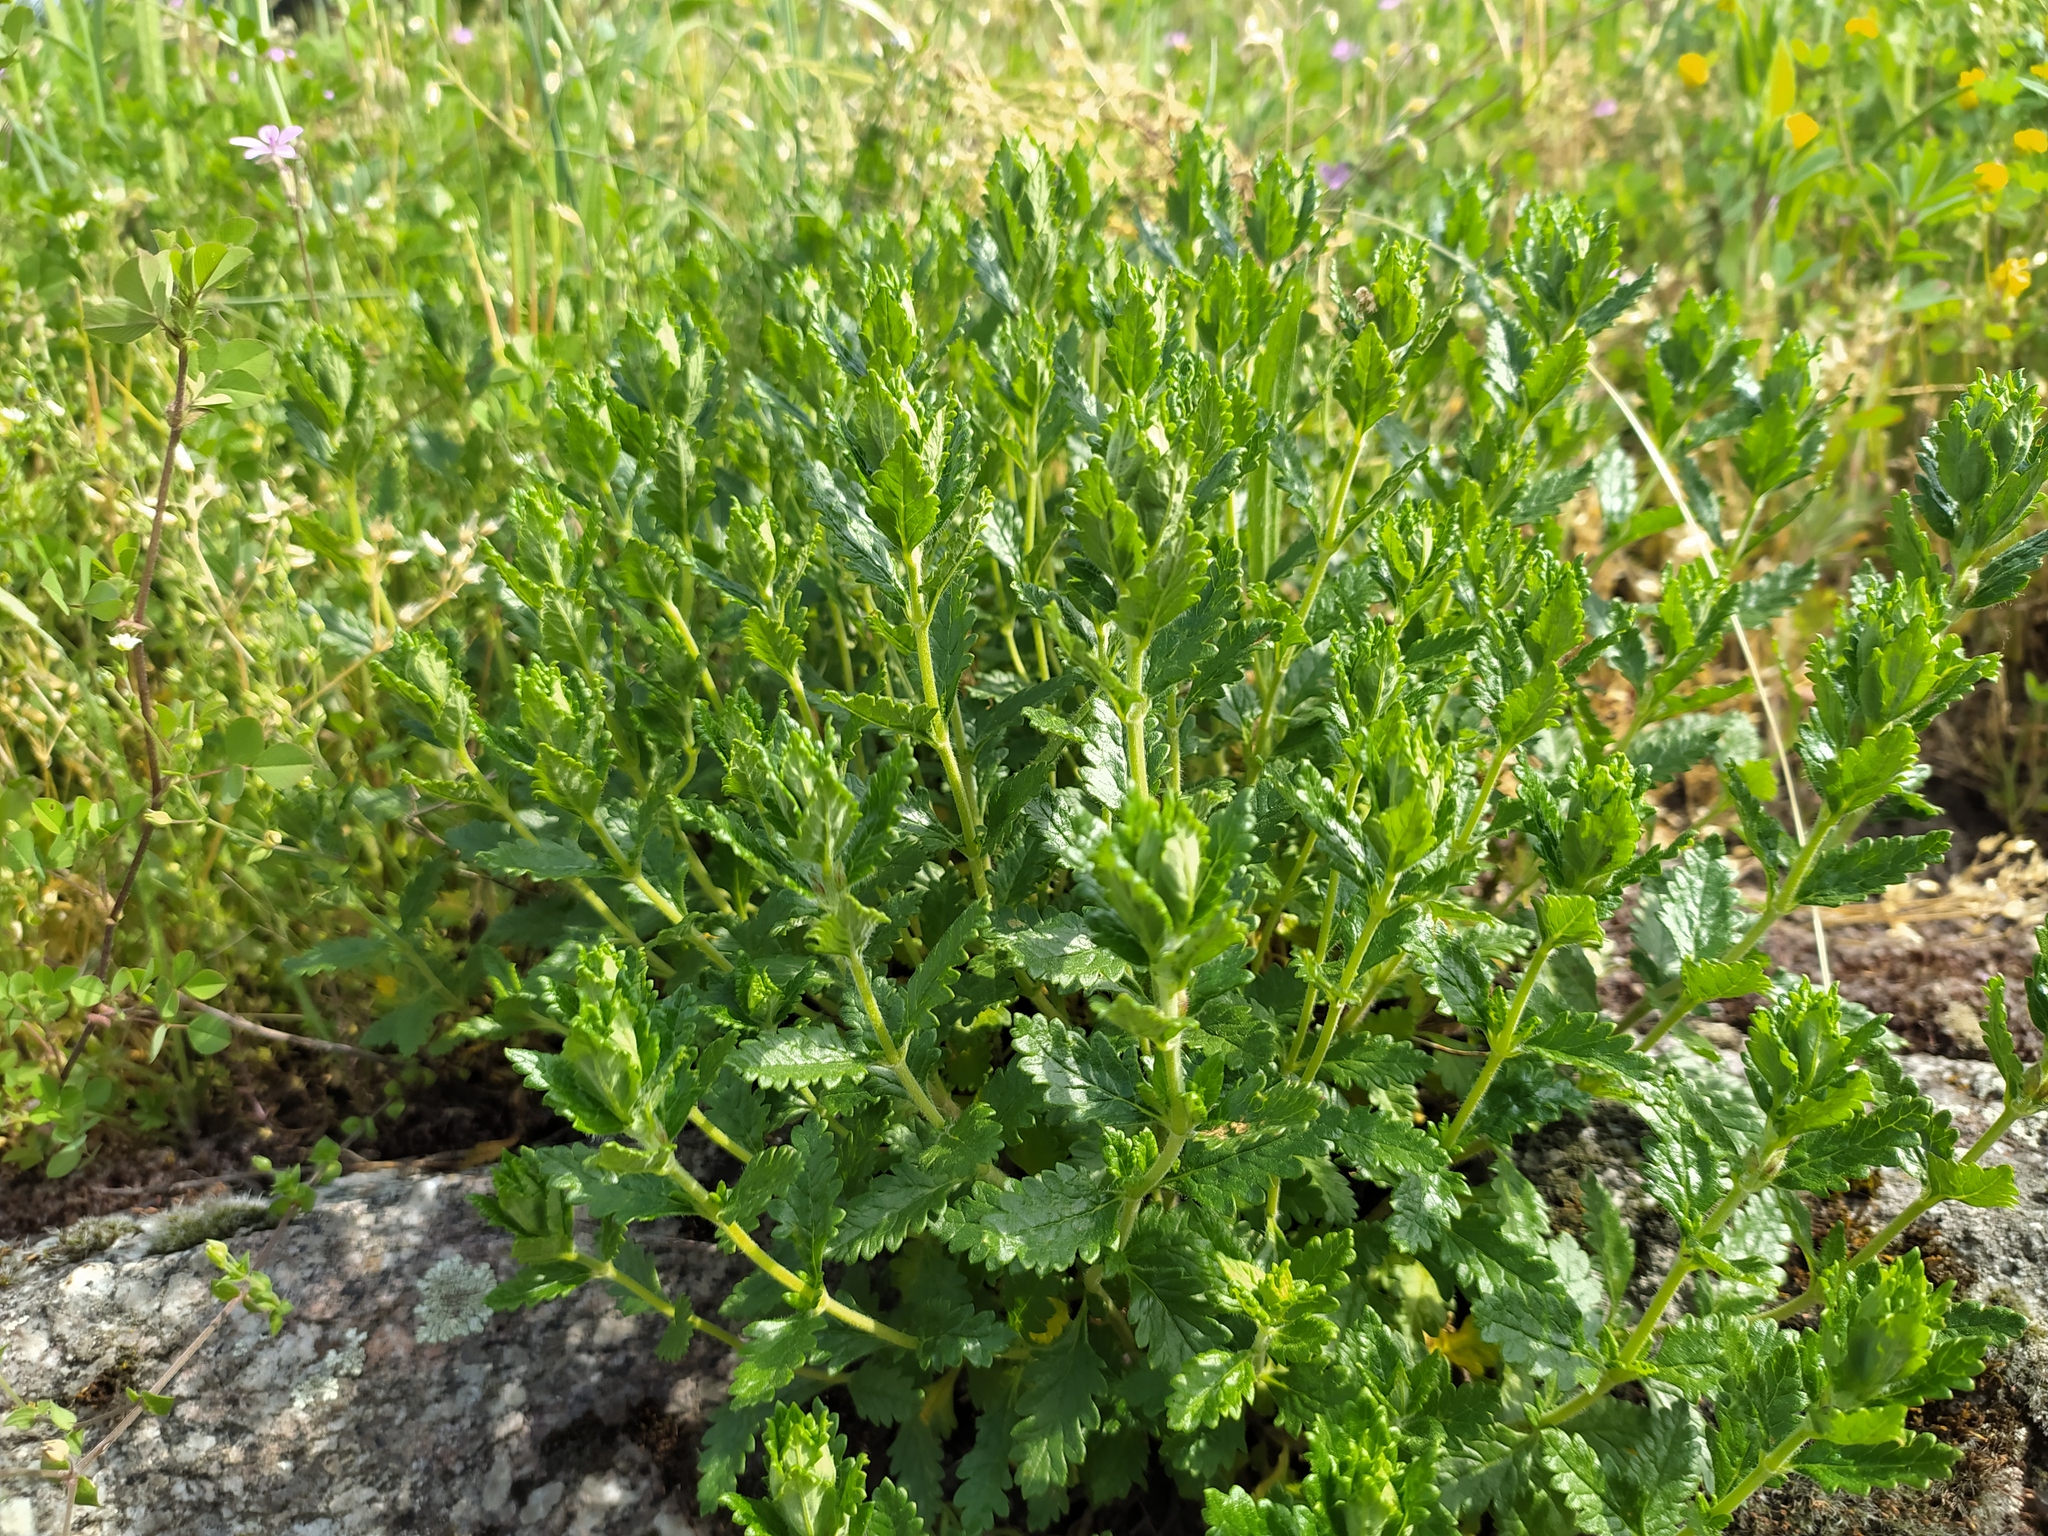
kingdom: Plantae
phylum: Tracheophyta
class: Magnoliopsida
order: Lamiales
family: Lamiaceae
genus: Teucrium
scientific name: Teucrium chamaedrys
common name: Wall germander
